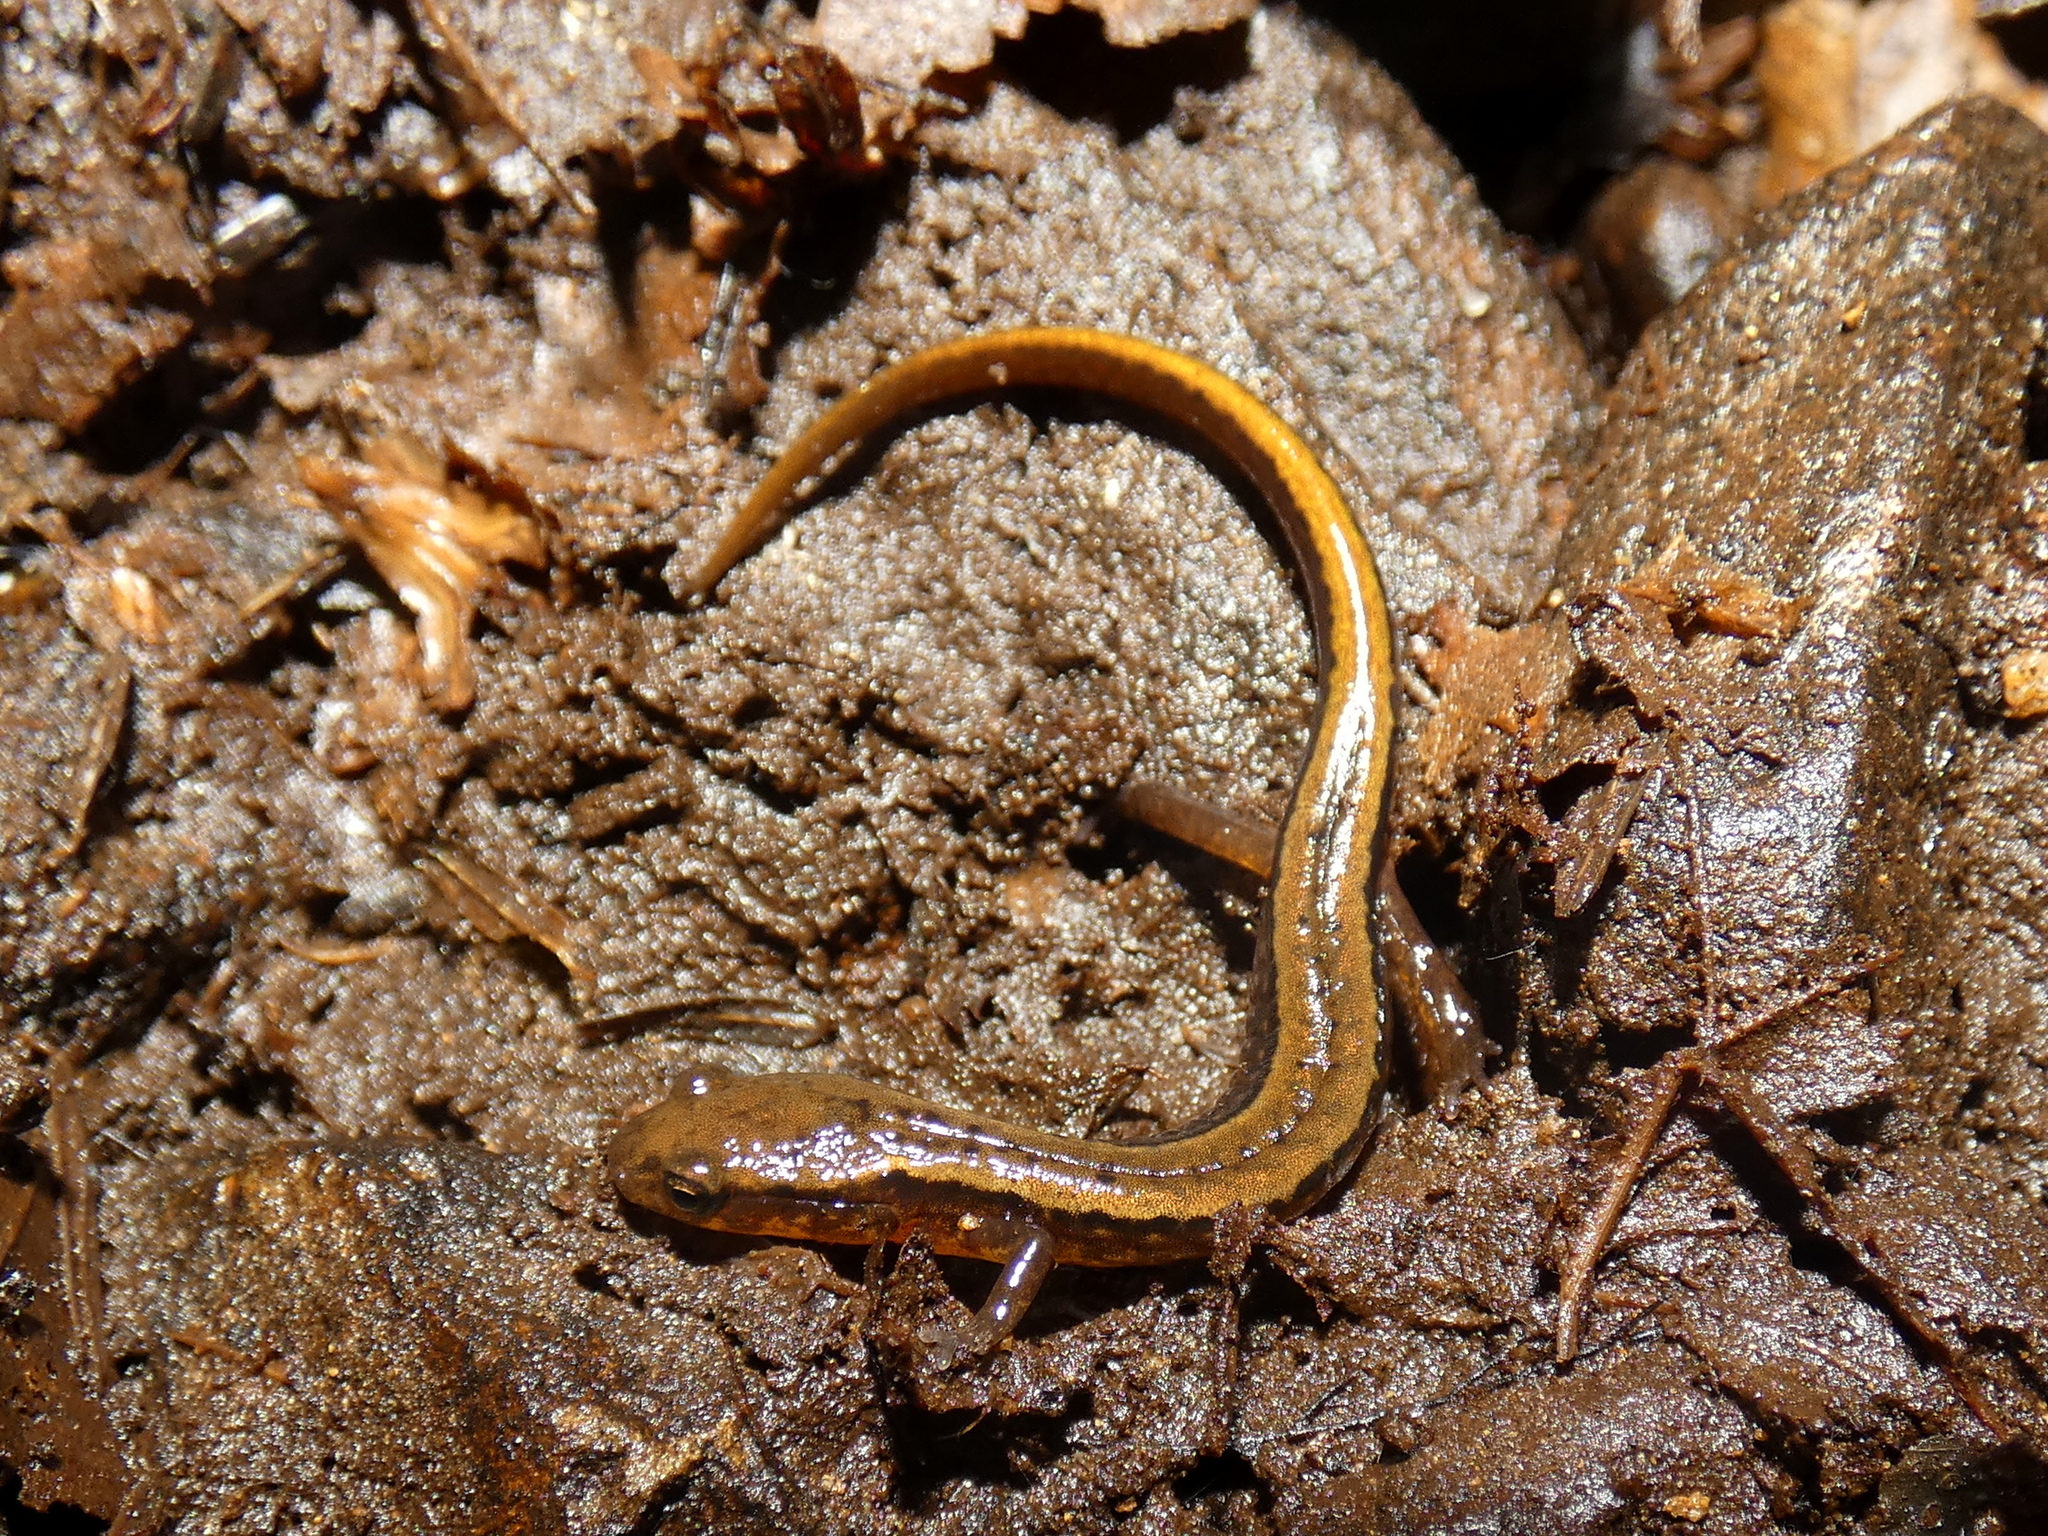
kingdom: Animalia
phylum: Chordata
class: Amphibia
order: Caudata
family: Plethodontidae
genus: Eurycea
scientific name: Eurycea bislineata
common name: Northern two-lined salamander
